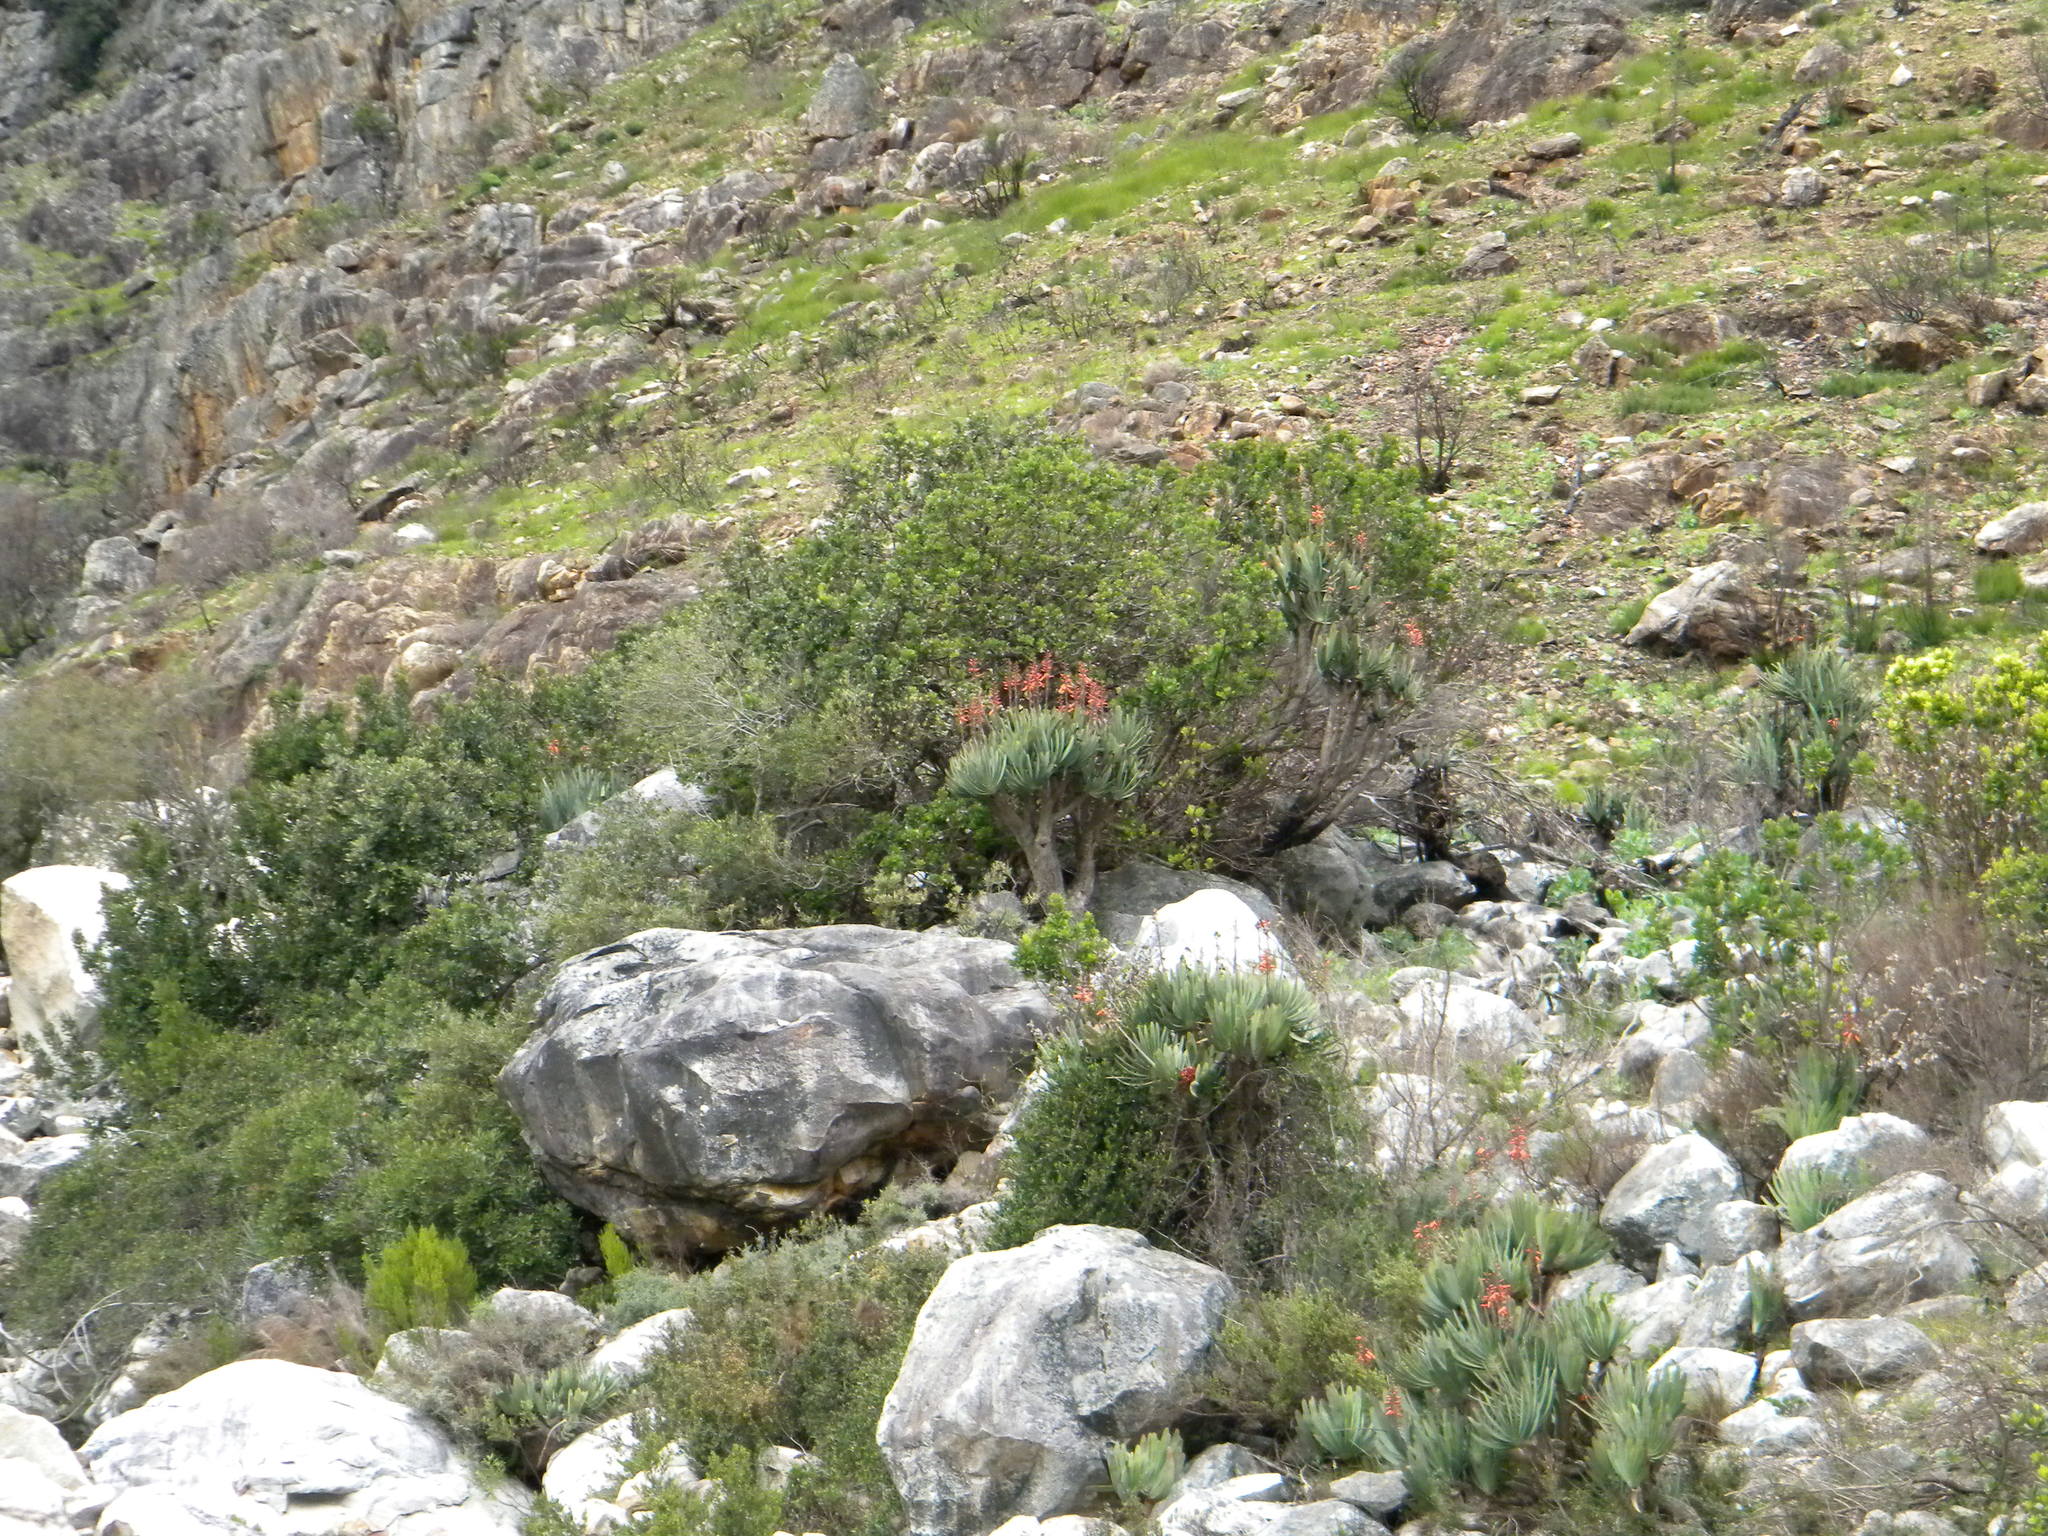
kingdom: Plantae
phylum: Tracheophyta
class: Liliopsida
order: Asparagales
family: Asphodelaceae
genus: Kumara
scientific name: Kumara plicatilis
